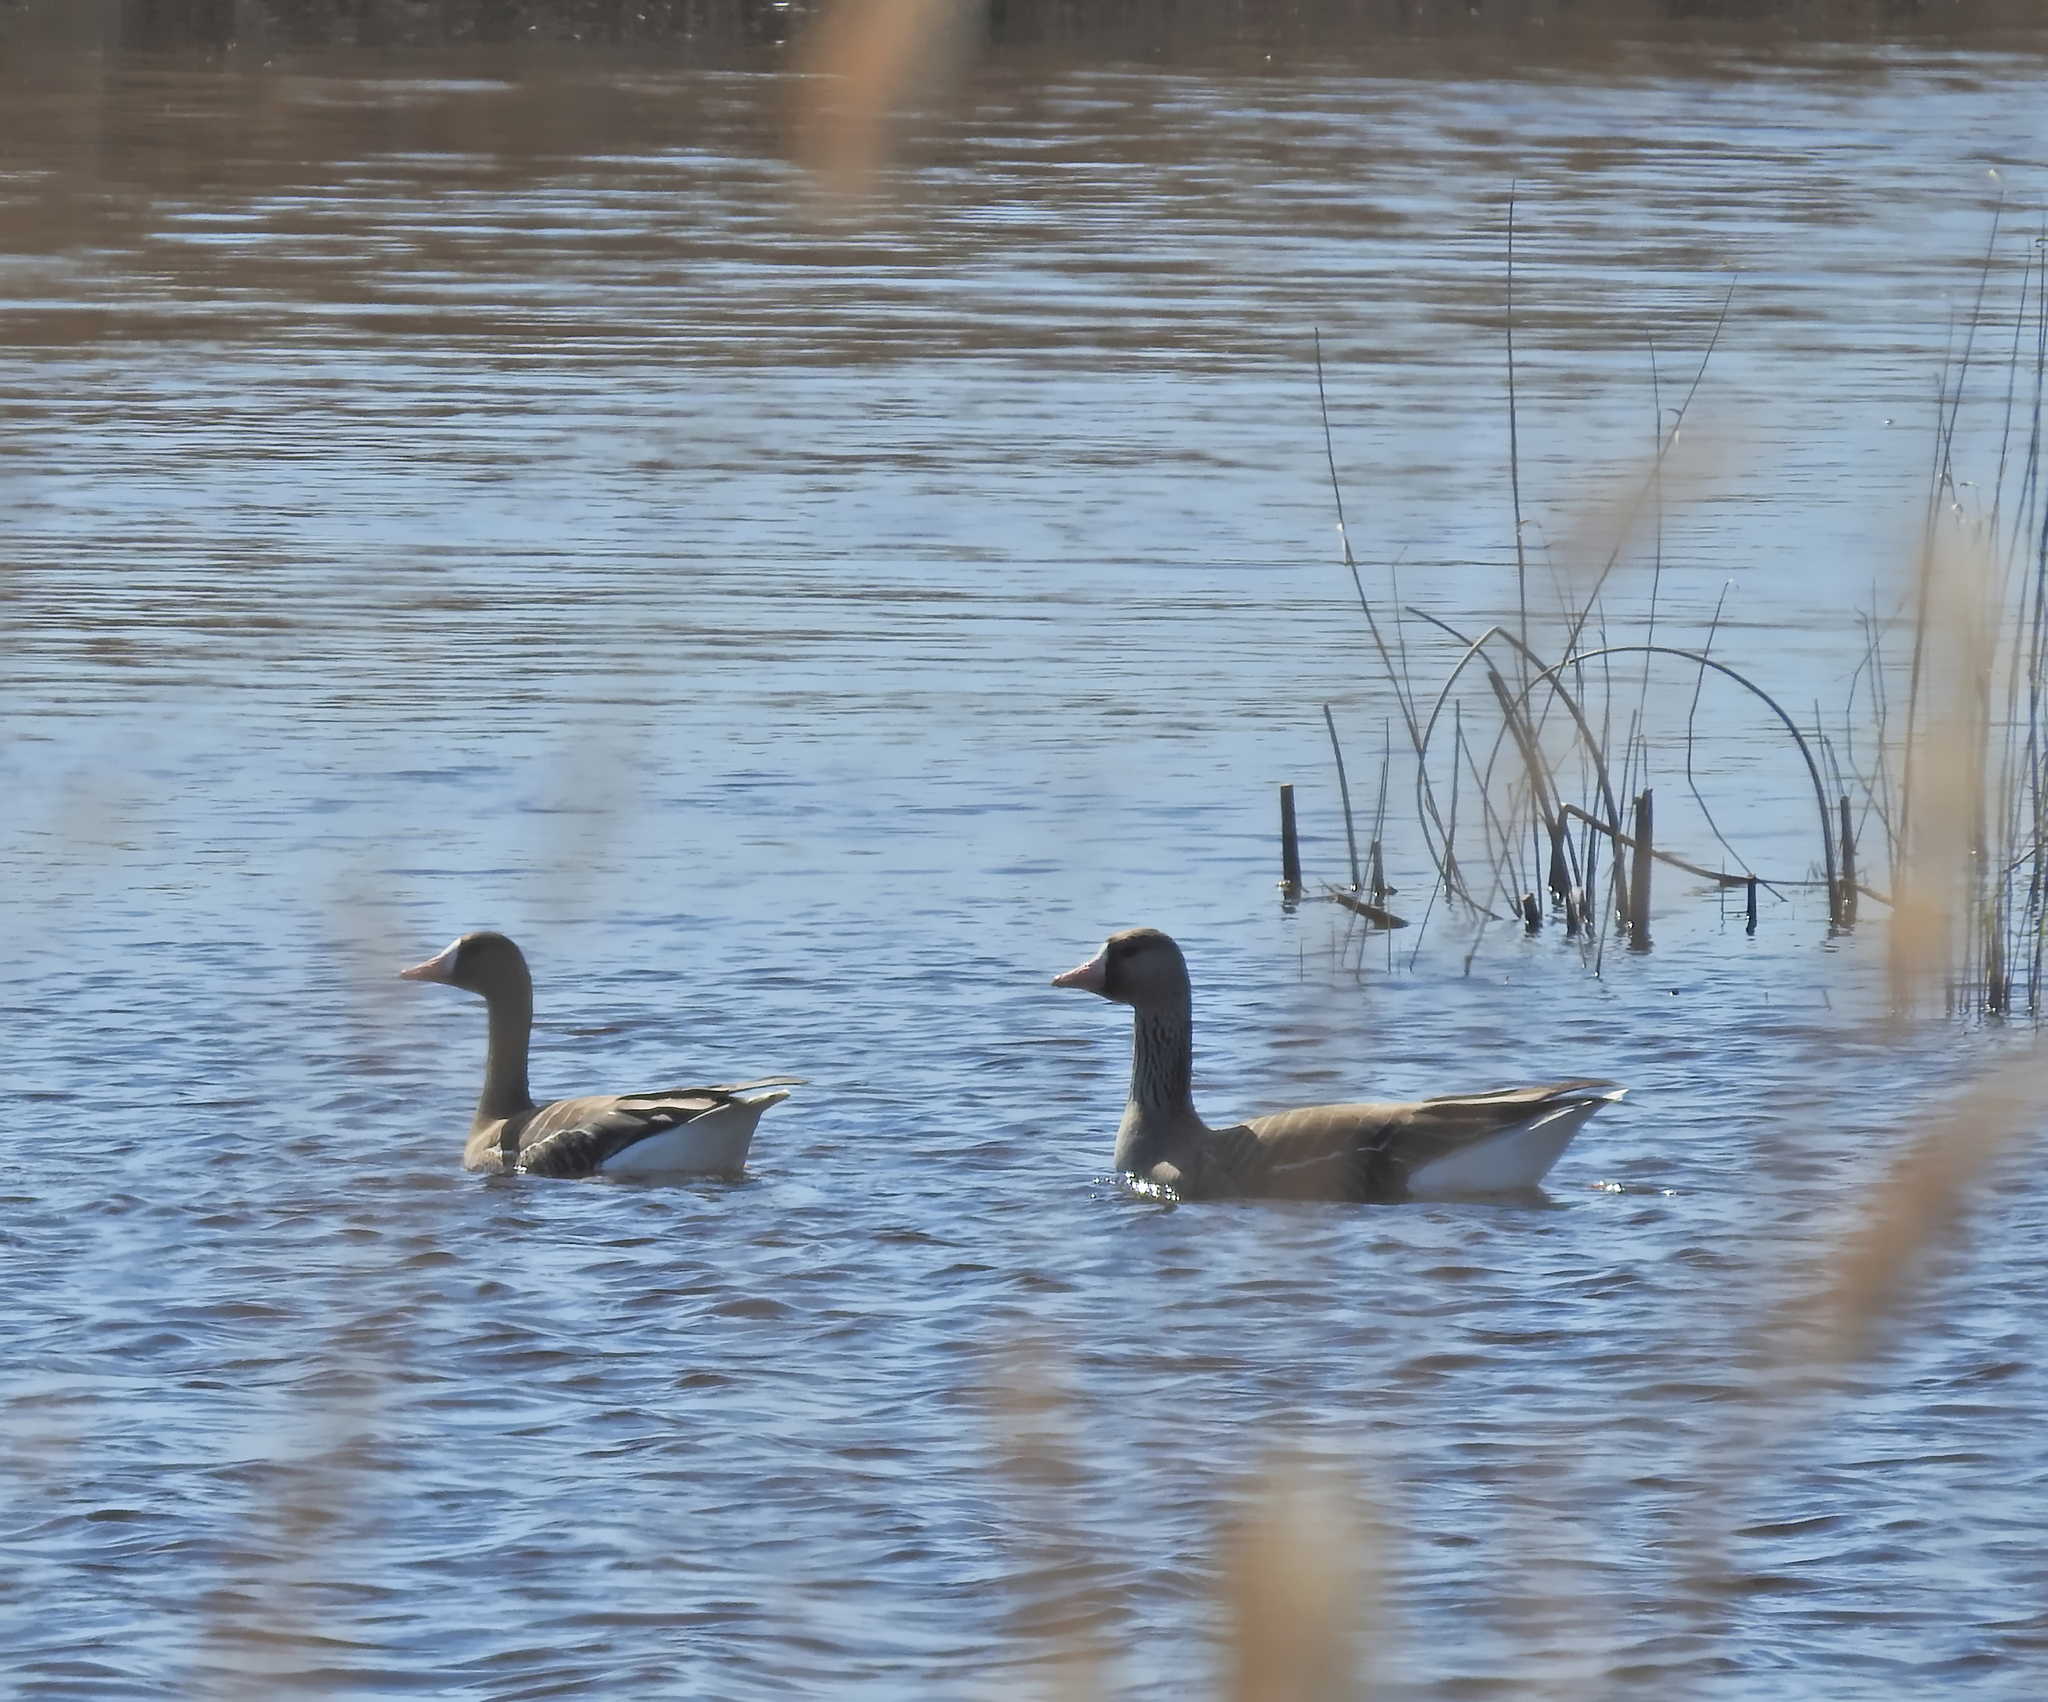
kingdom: Animalia
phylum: Chordata
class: Aves
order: Anseriformes
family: Anatidae
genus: Anser
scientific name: Anser albifrons
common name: Greater white-fronted goose
